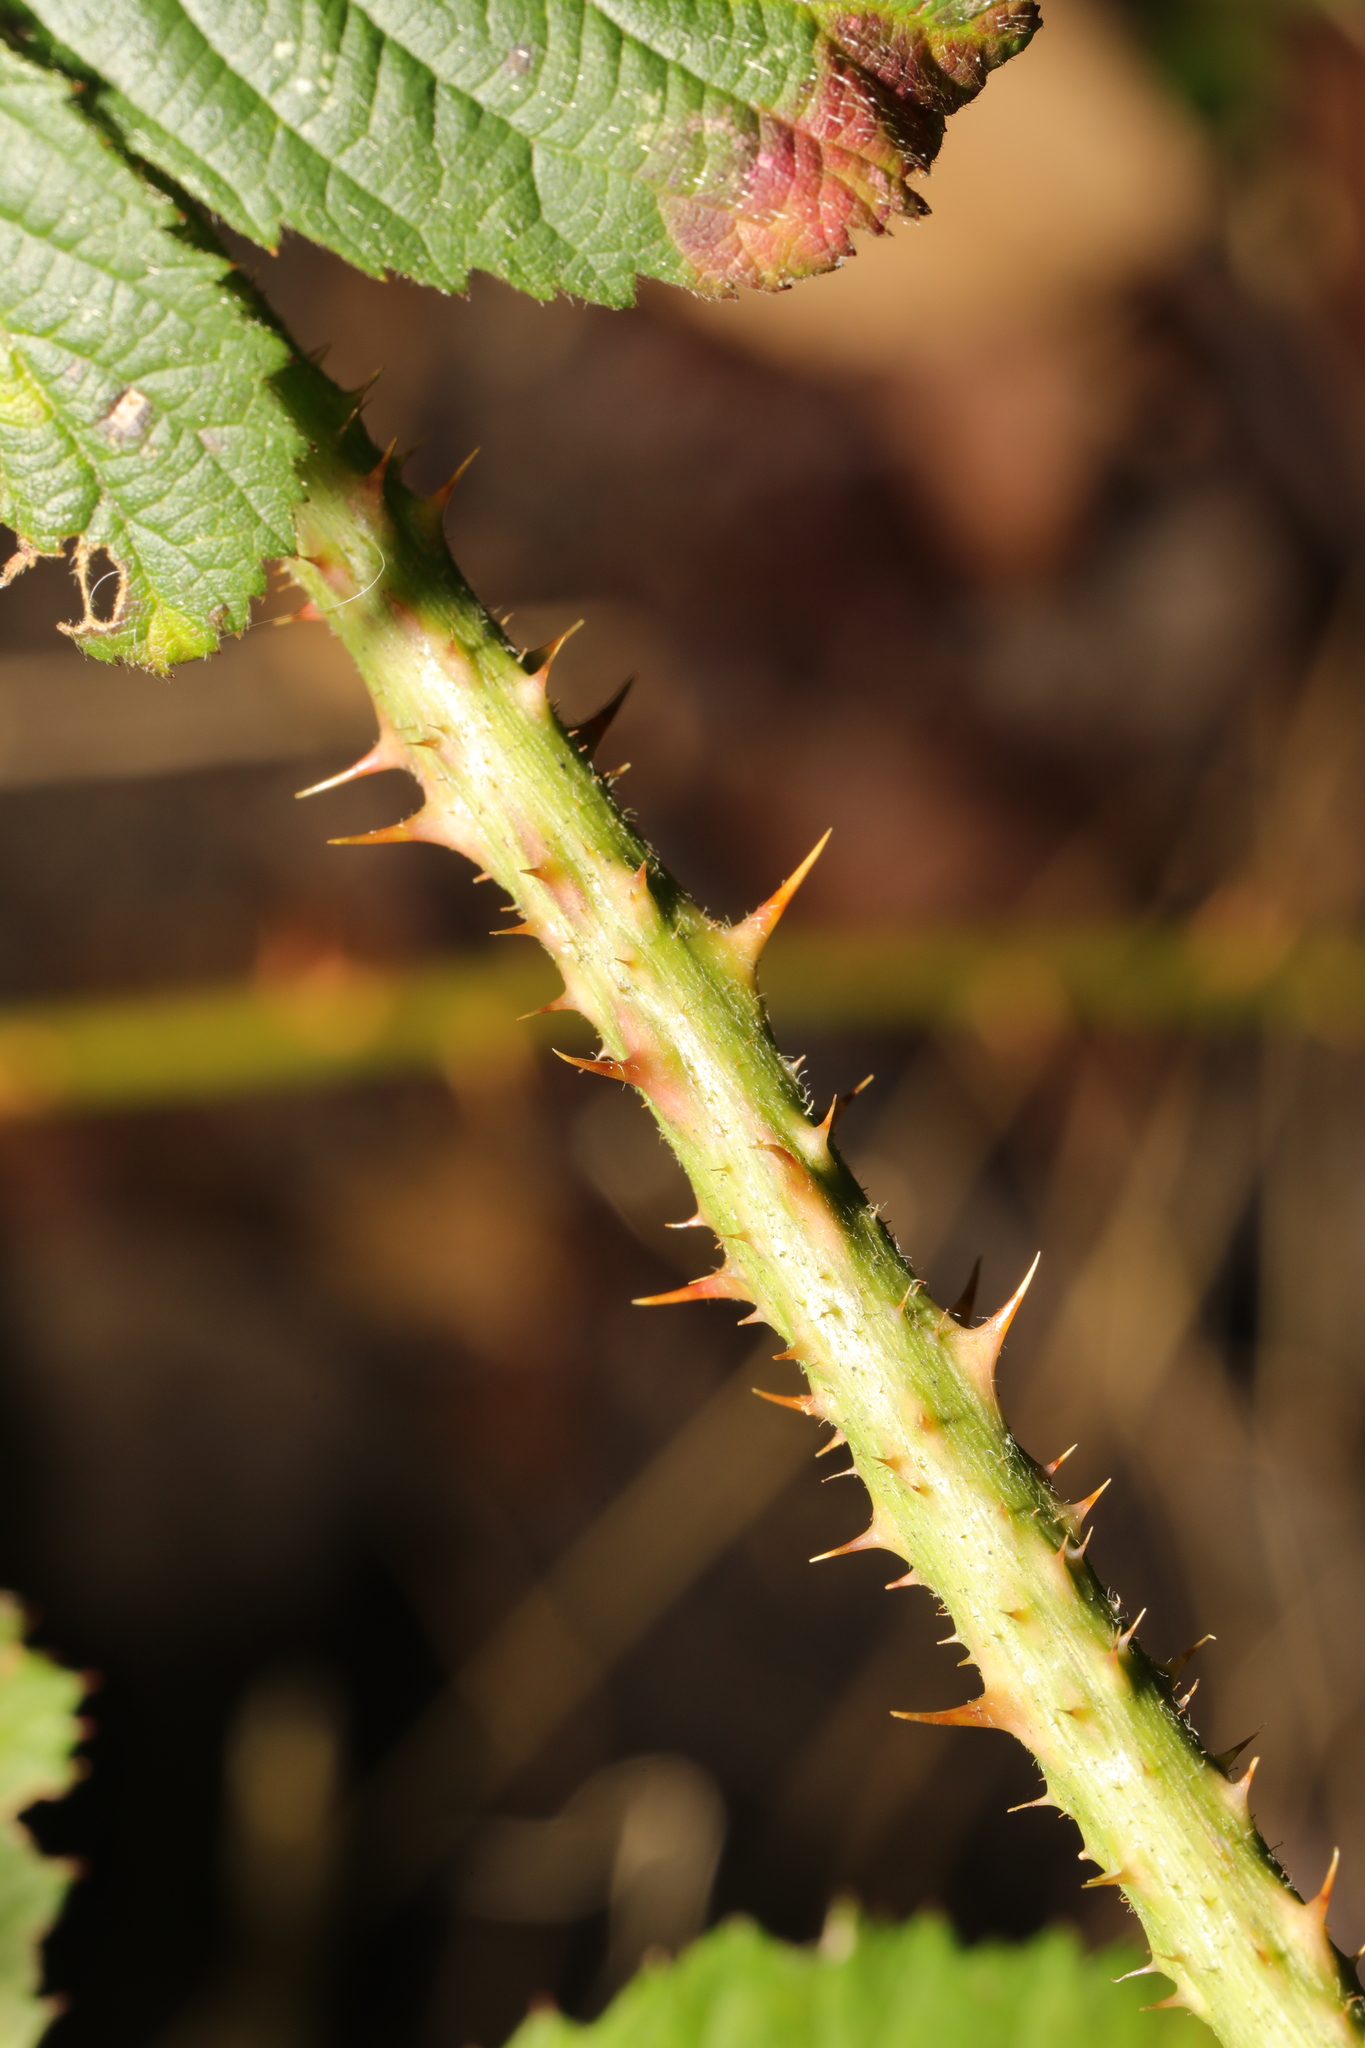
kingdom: Plantae
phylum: Tracheophyta
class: Magnoliopsida
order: Rosales
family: Rosaceae
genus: Rubus
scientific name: Rubus horrefactus
